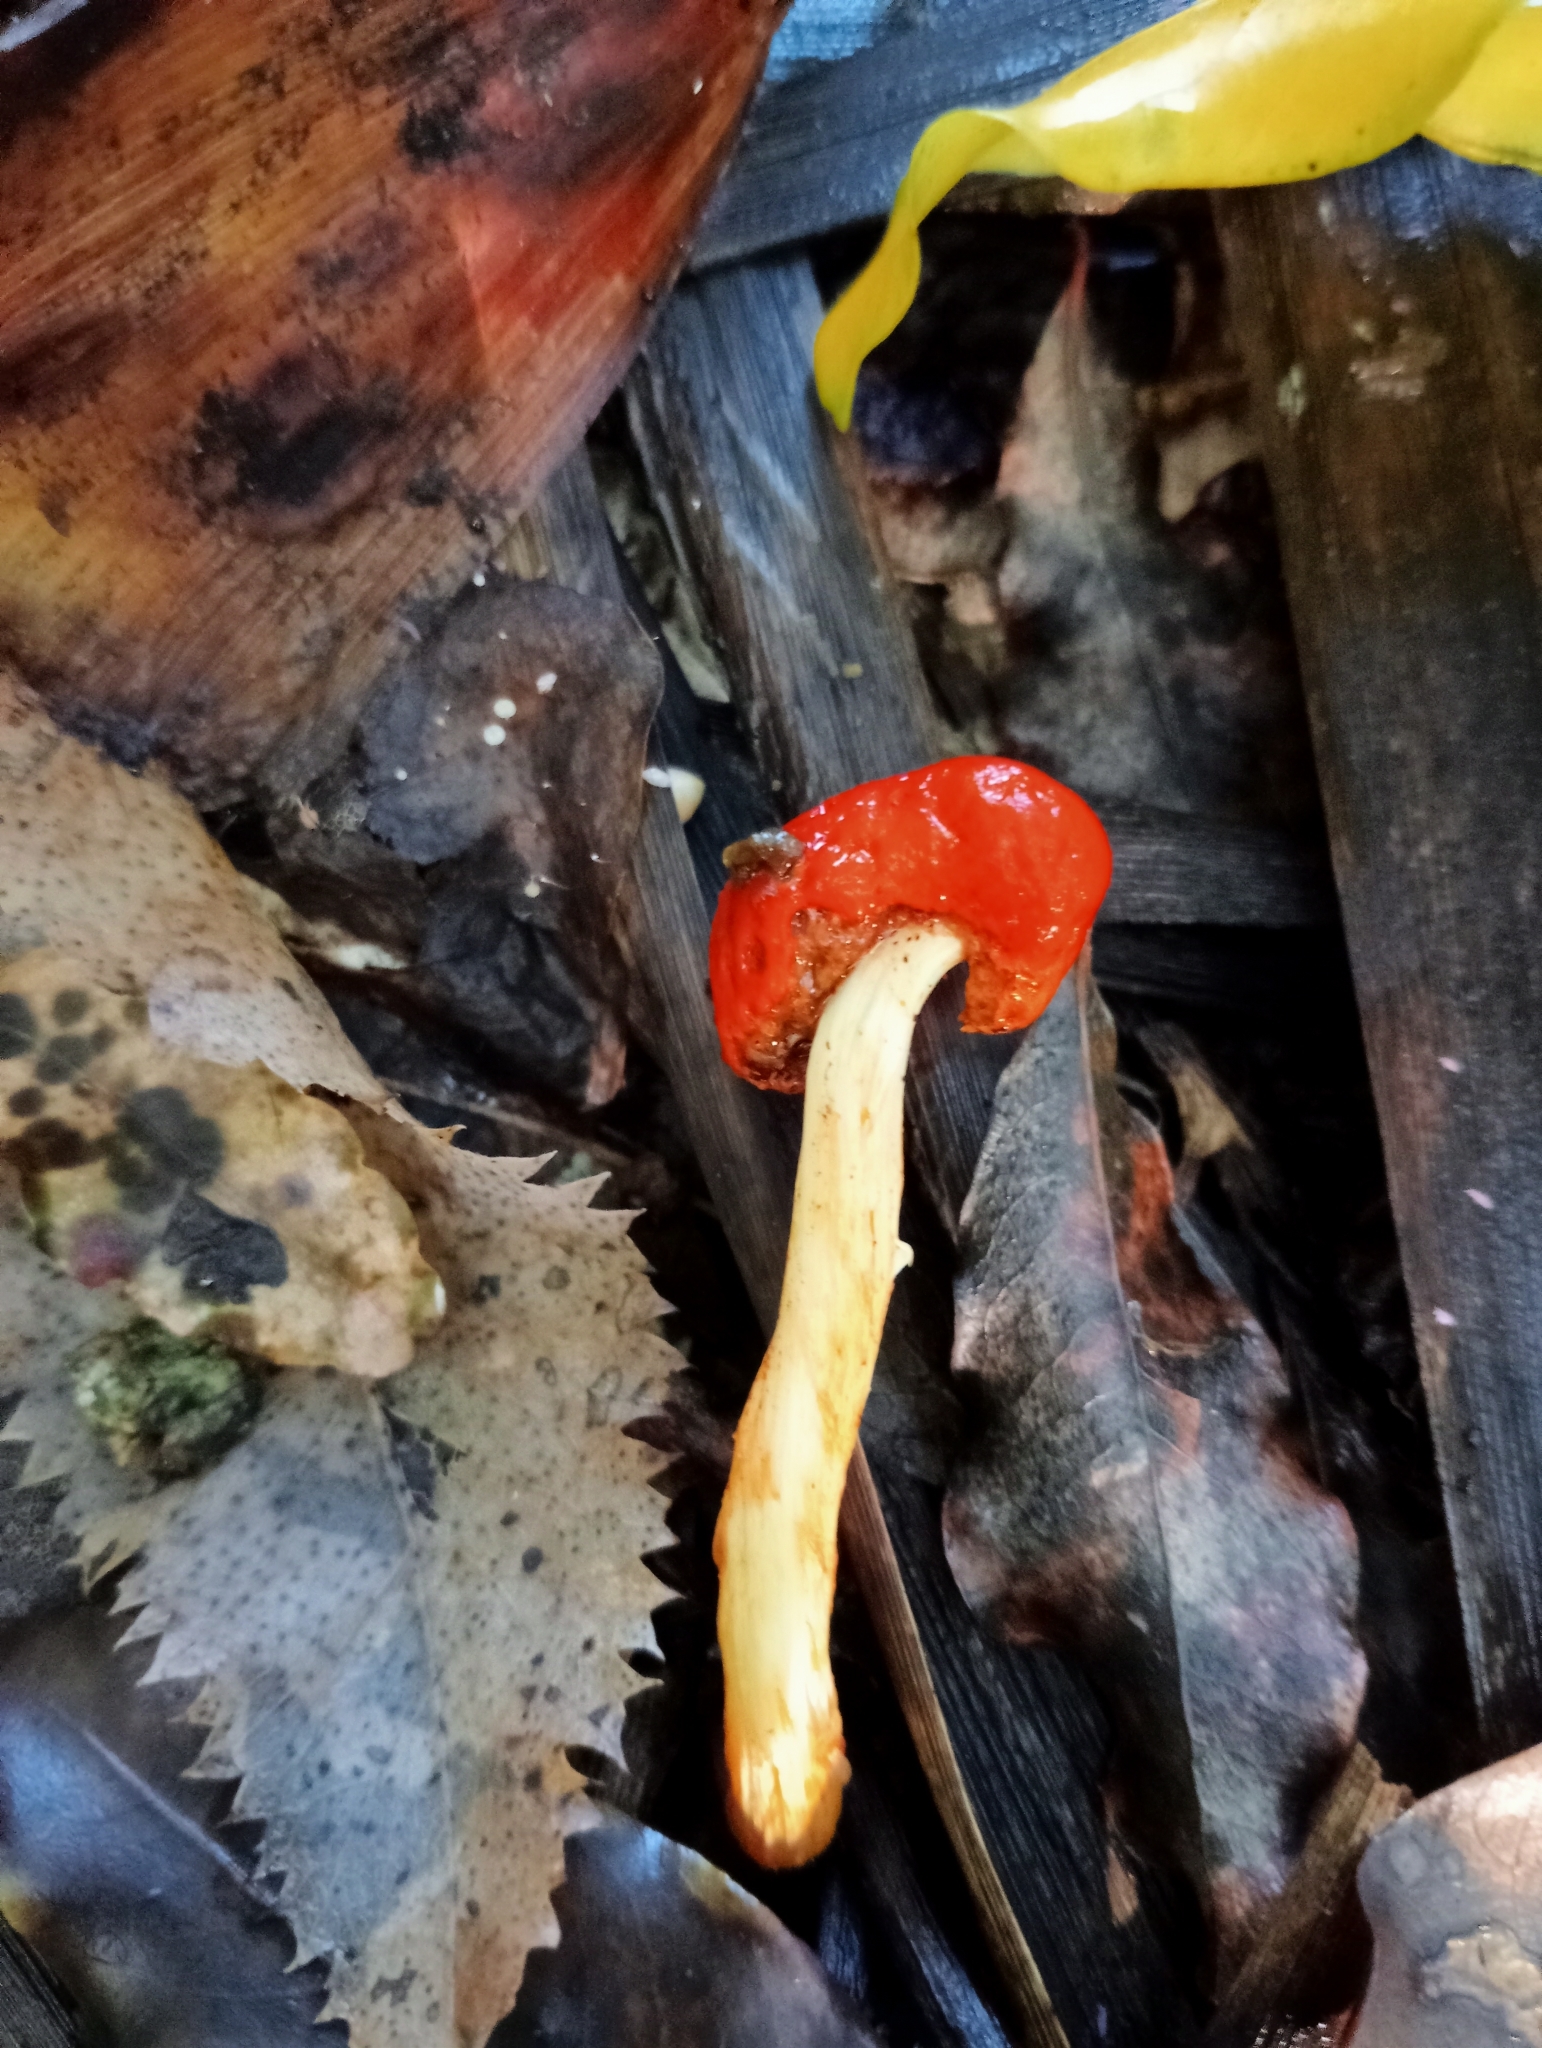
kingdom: Fungi
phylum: Basidiomycota
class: Agaricomycetes
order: Agaricales
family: Strophariaceae
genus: Leratiomyces
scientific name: Leratiomyces erythrocephalus
